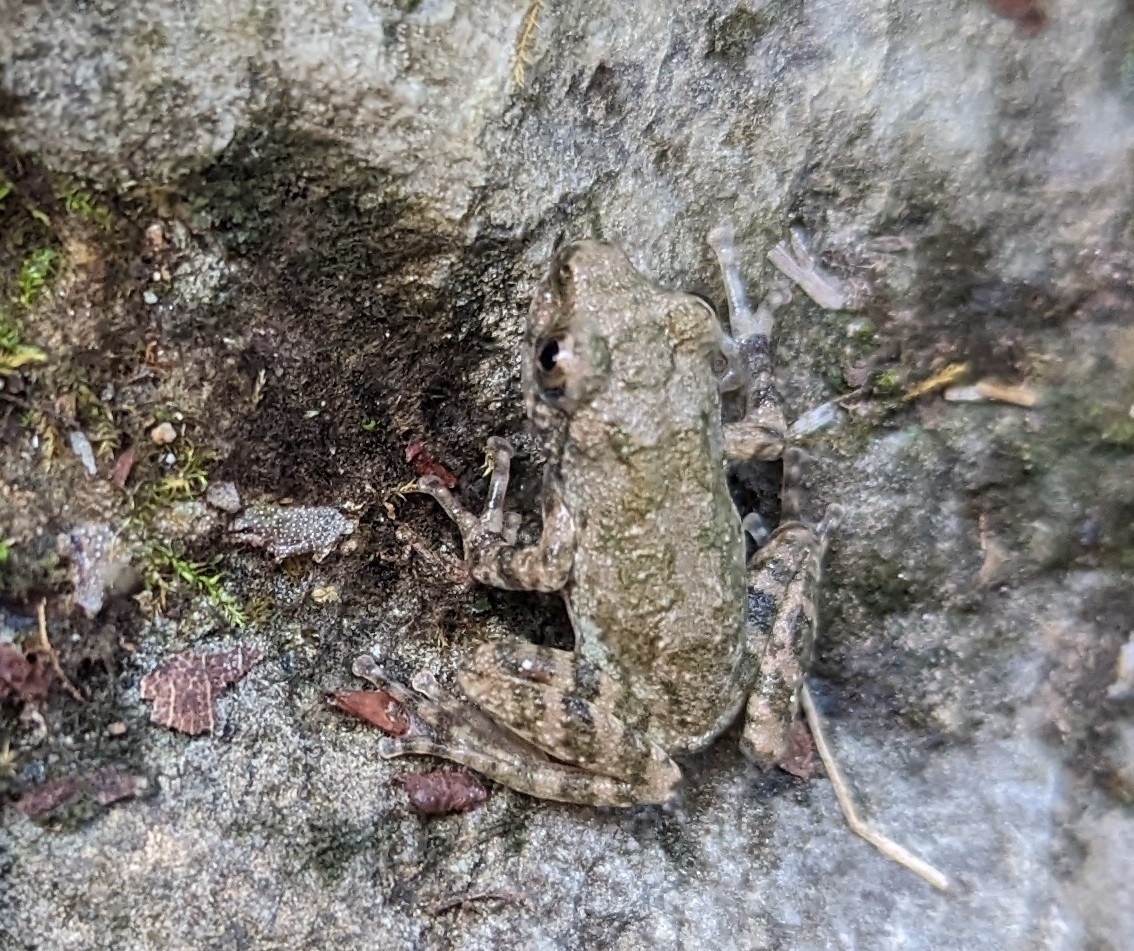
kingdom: Animalia
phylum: Chordata
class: Amphibia
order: Anura
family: Hylidae
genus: Dryophytes
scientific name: Dryophytes japonicus
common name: Japanese treefrog
